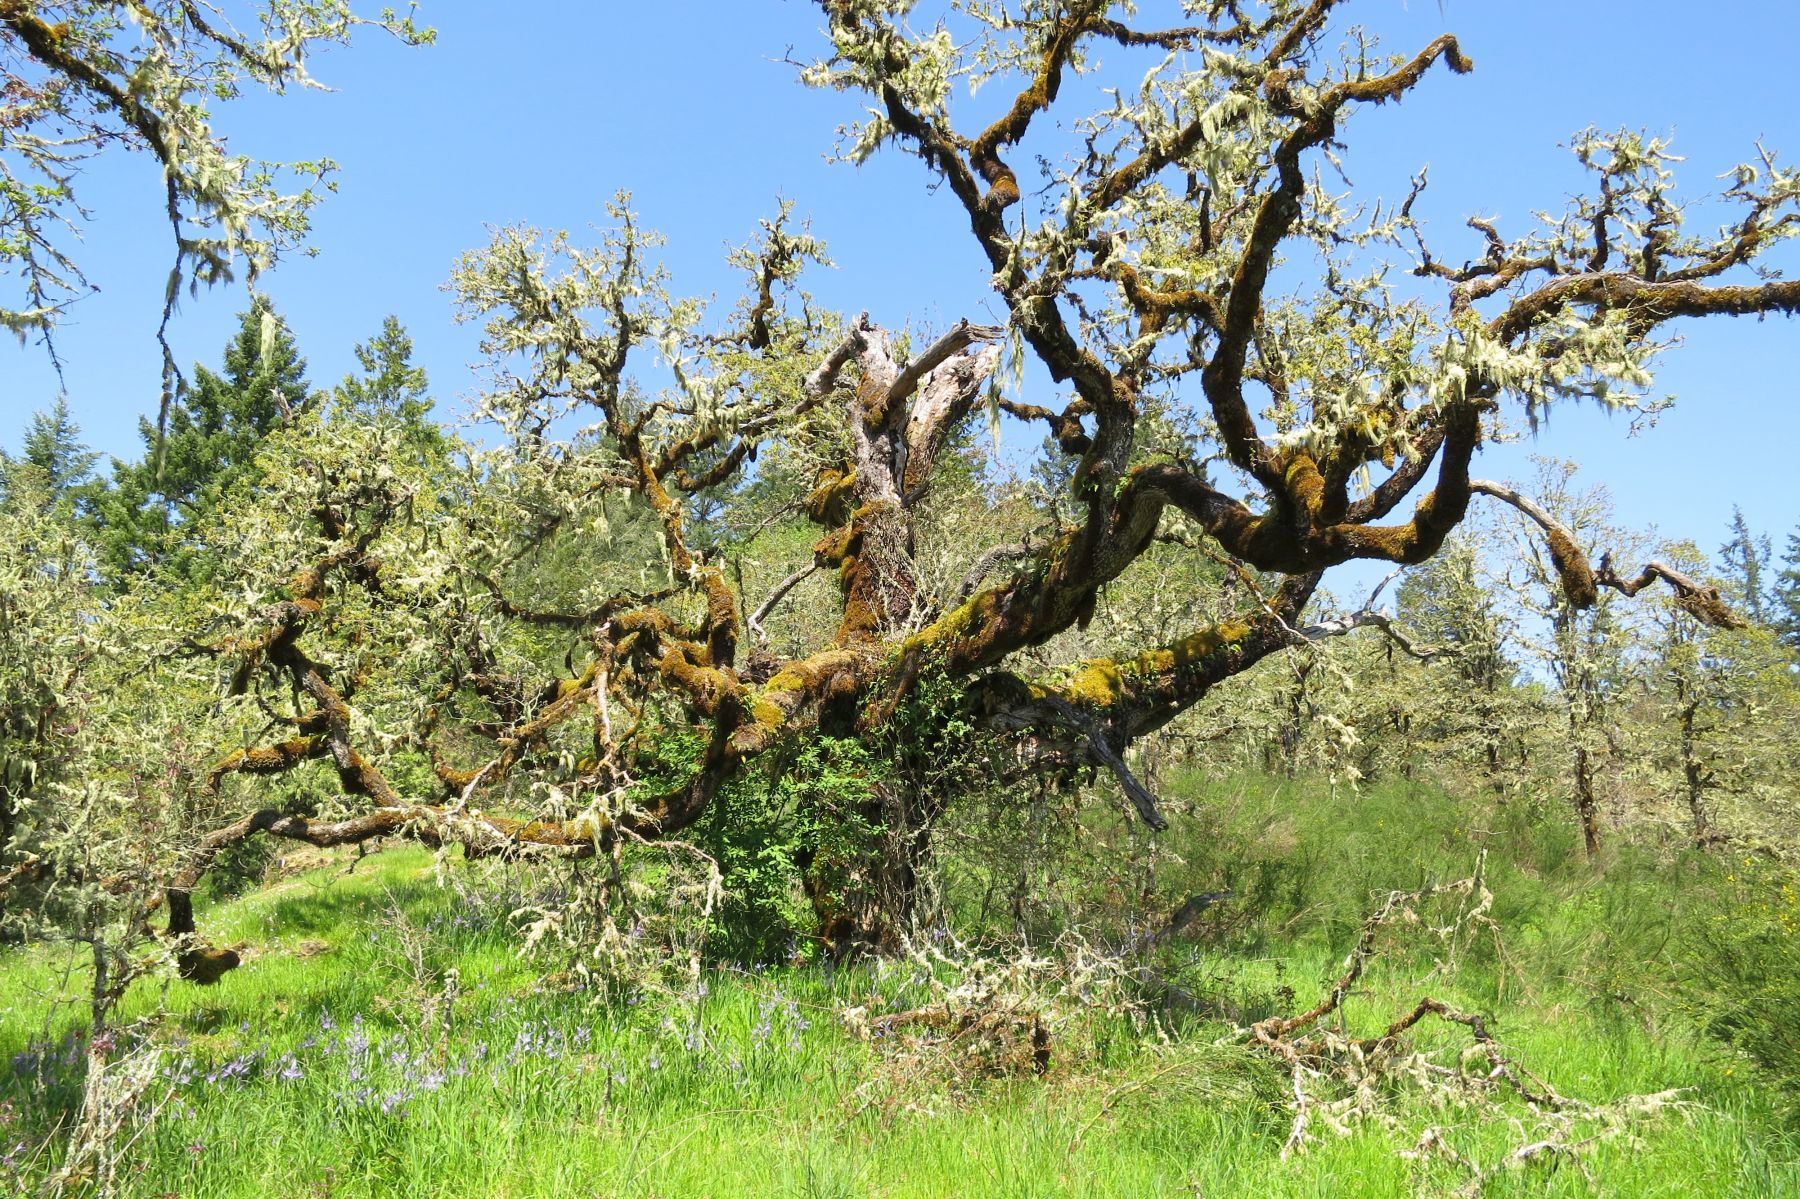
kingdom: Plantae
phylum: Tracheophyta
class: Magnoliopsida
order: Fagales
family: Fagaceae
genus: Quercus
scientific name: Quercus garryana
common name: Garry oak
